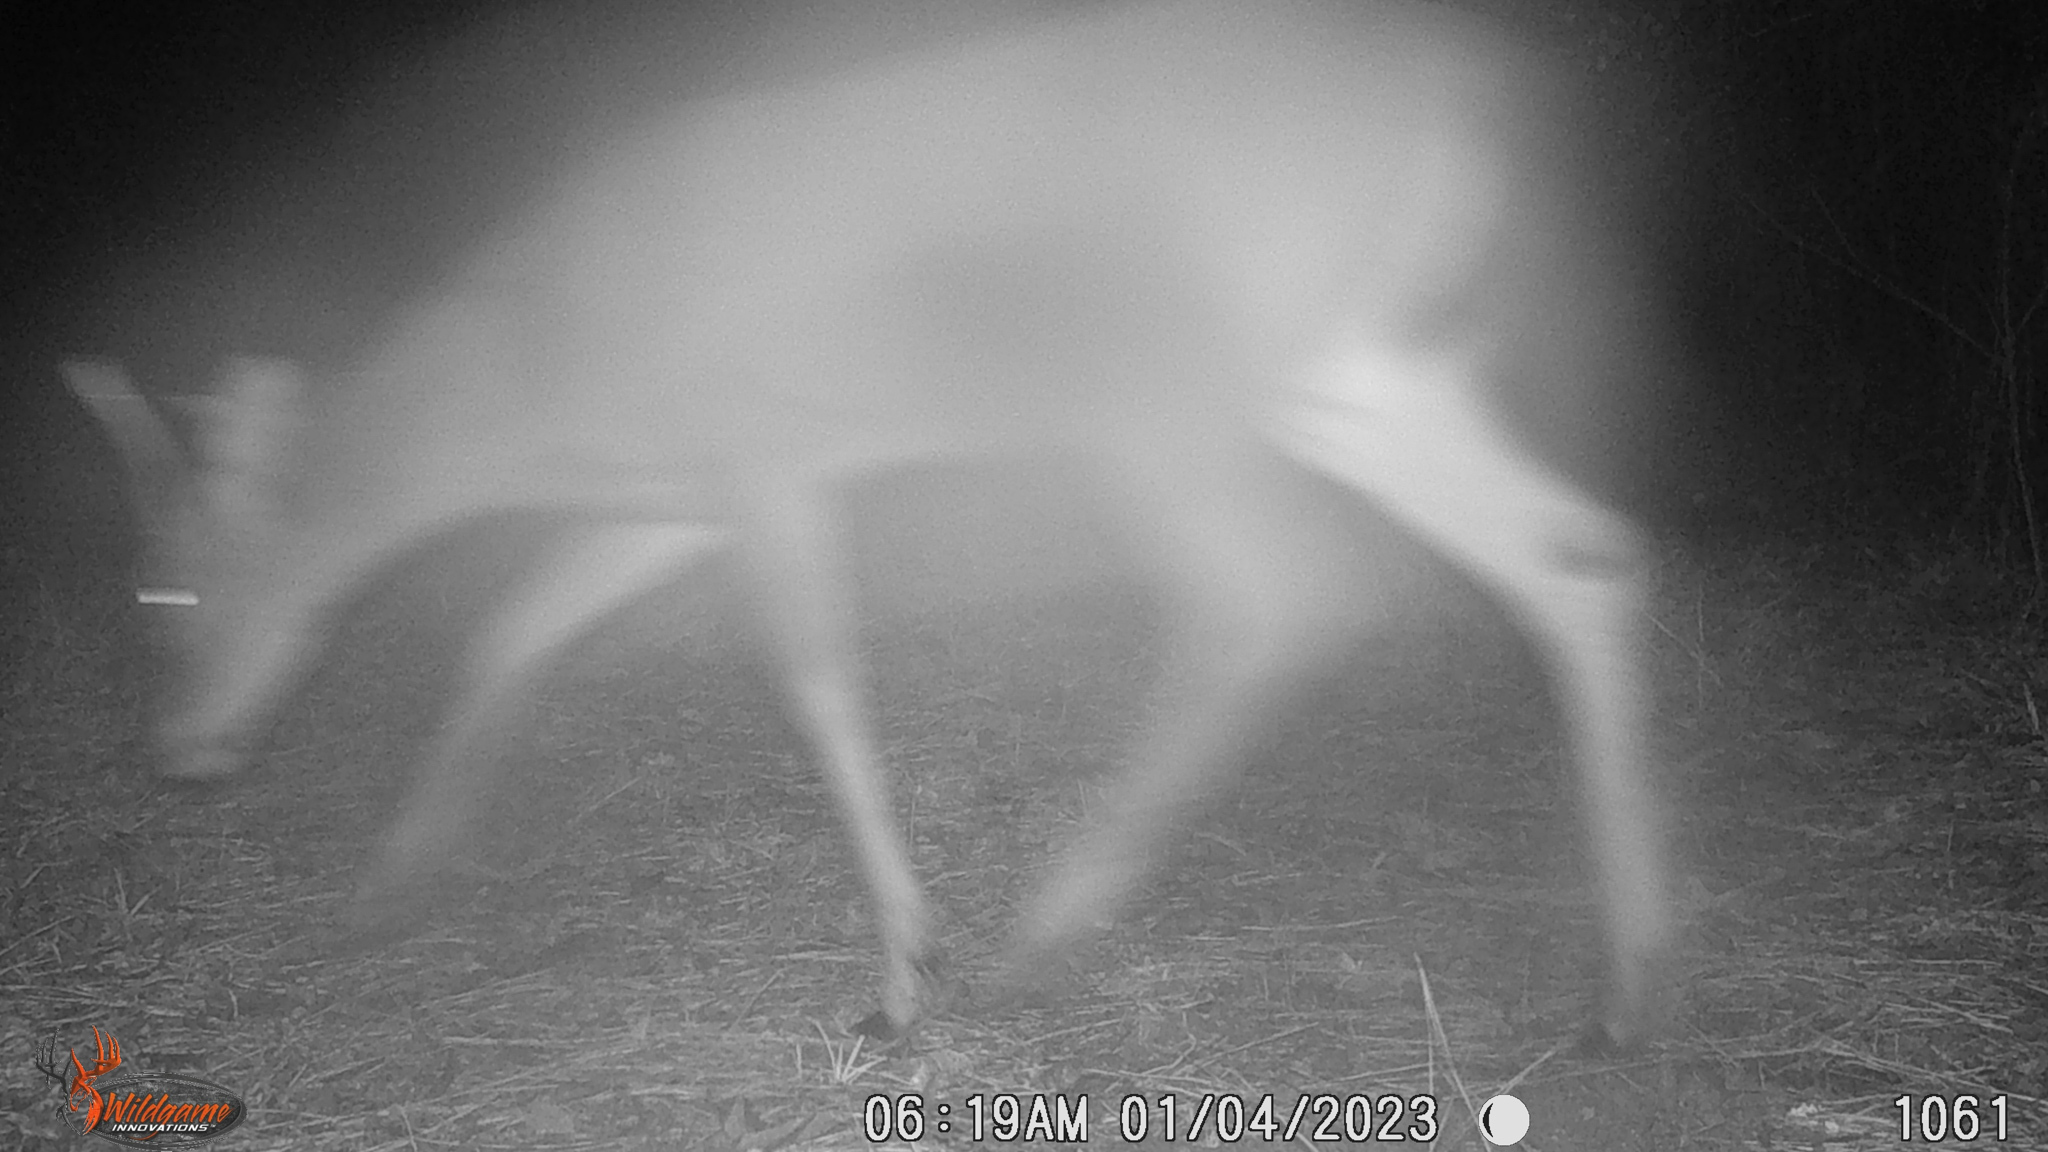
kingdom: Animalia
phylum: Chordata
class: Mammalia
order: Artiodactyla
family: Cervidae
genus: Odocoileus
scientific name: Odocoileus virginianus
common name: White-tailed deer
